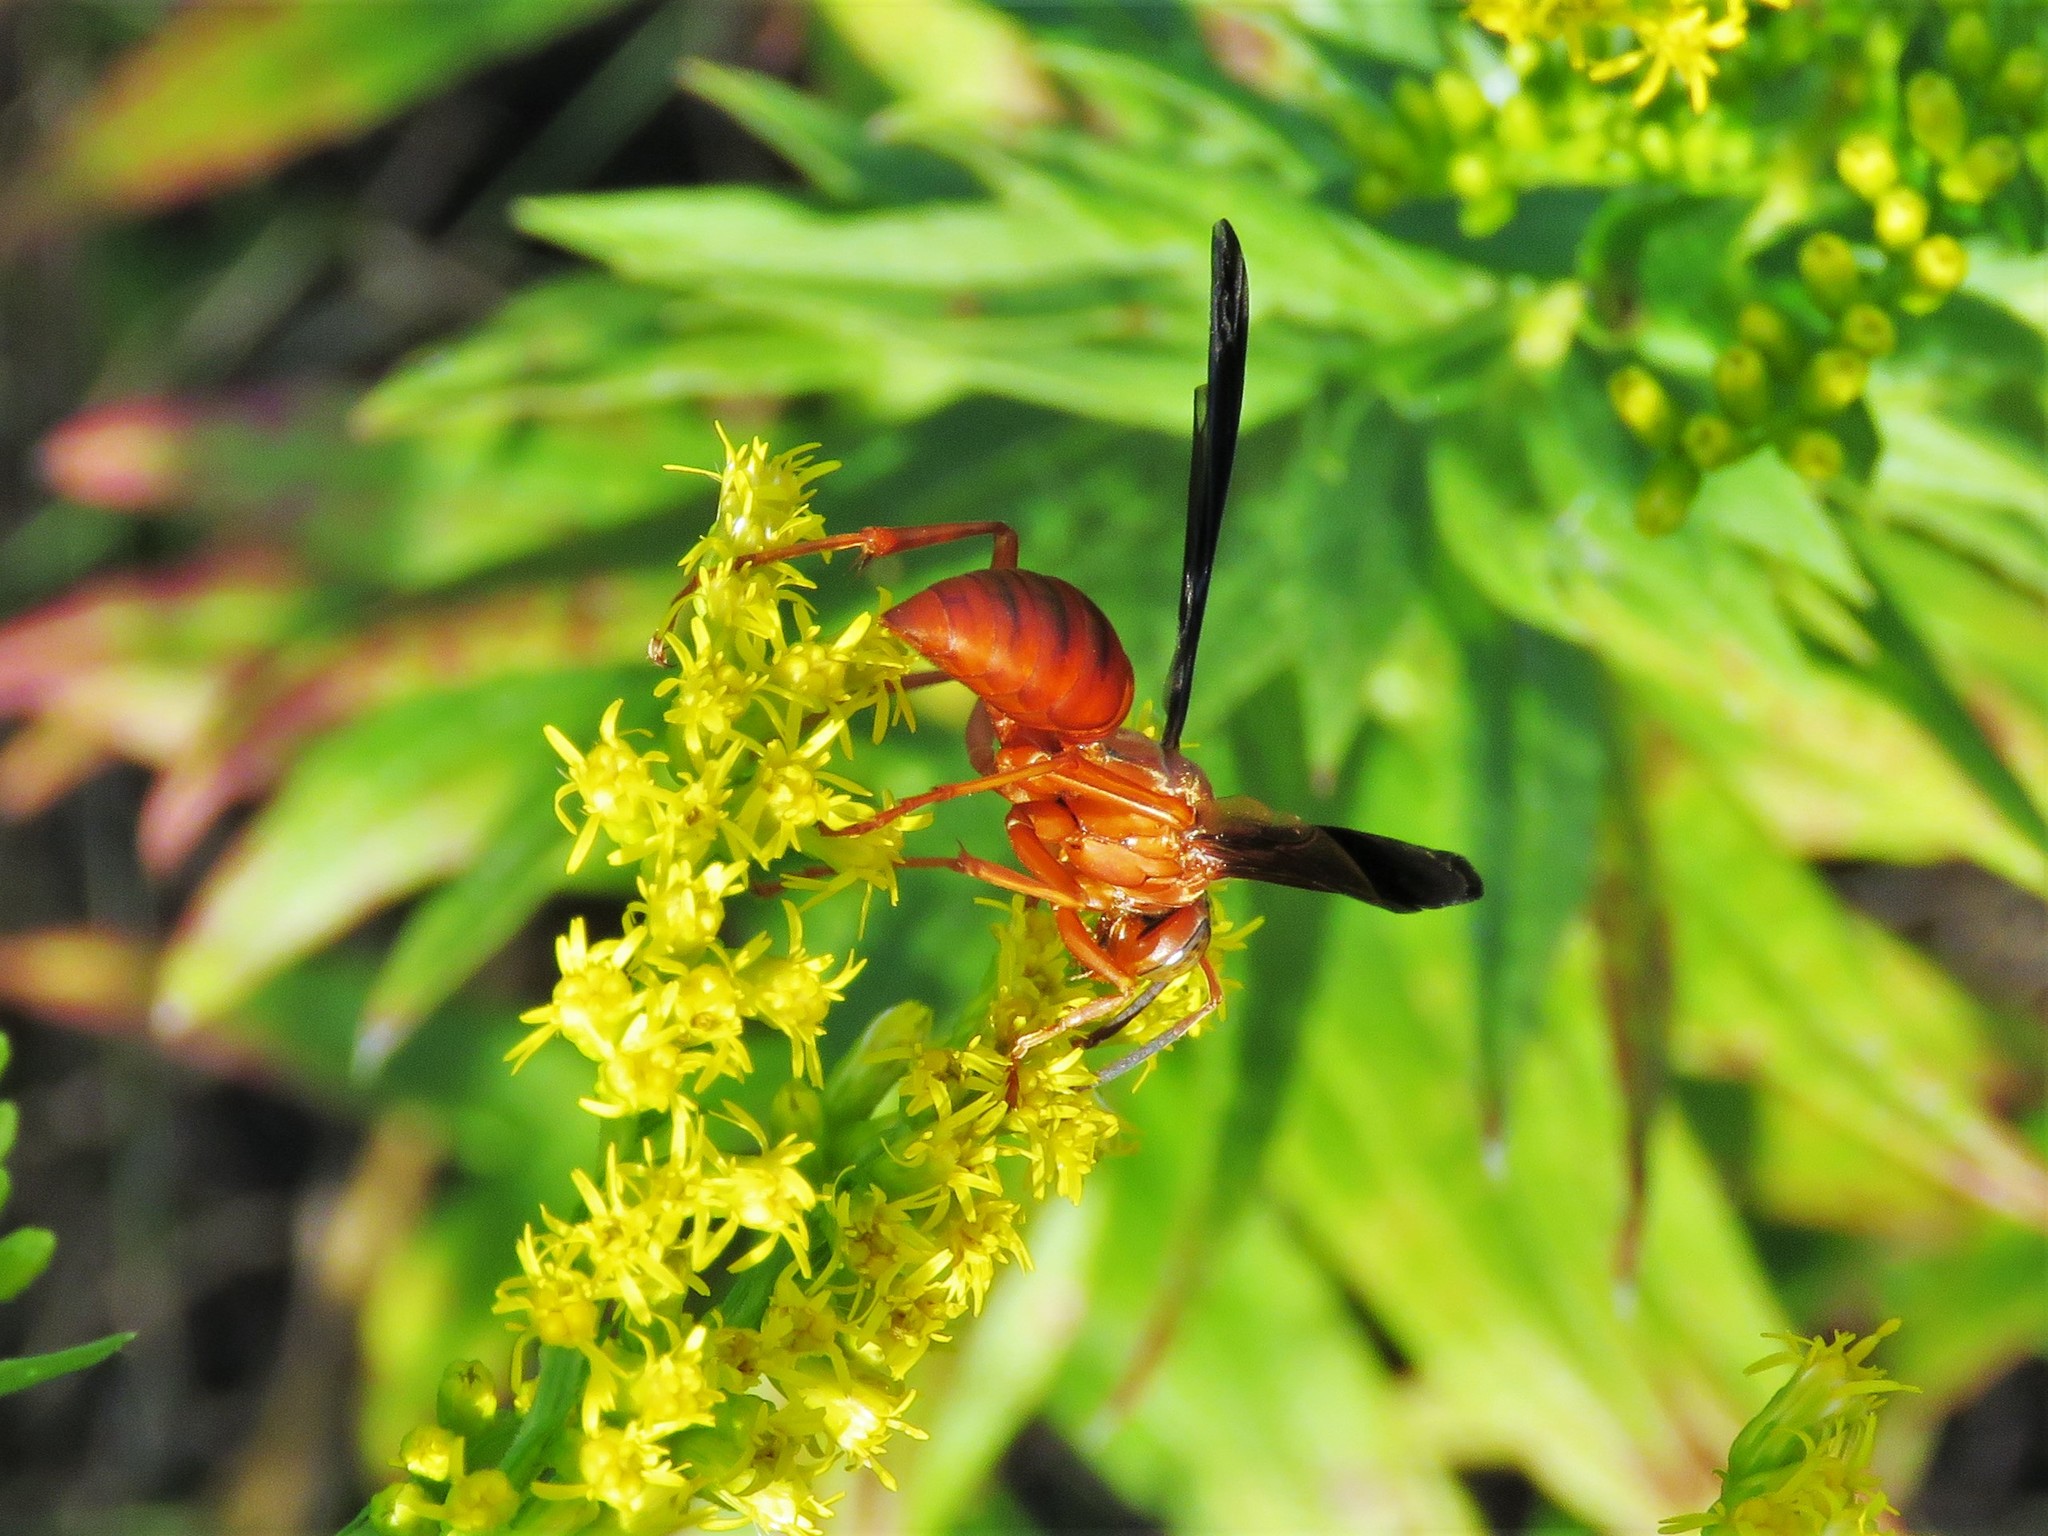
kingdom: Animalia
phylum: Arthropoda
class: Insecta
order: Hymenoptera
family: Eumenidae
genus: Polistes
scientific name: Polistes carolina
